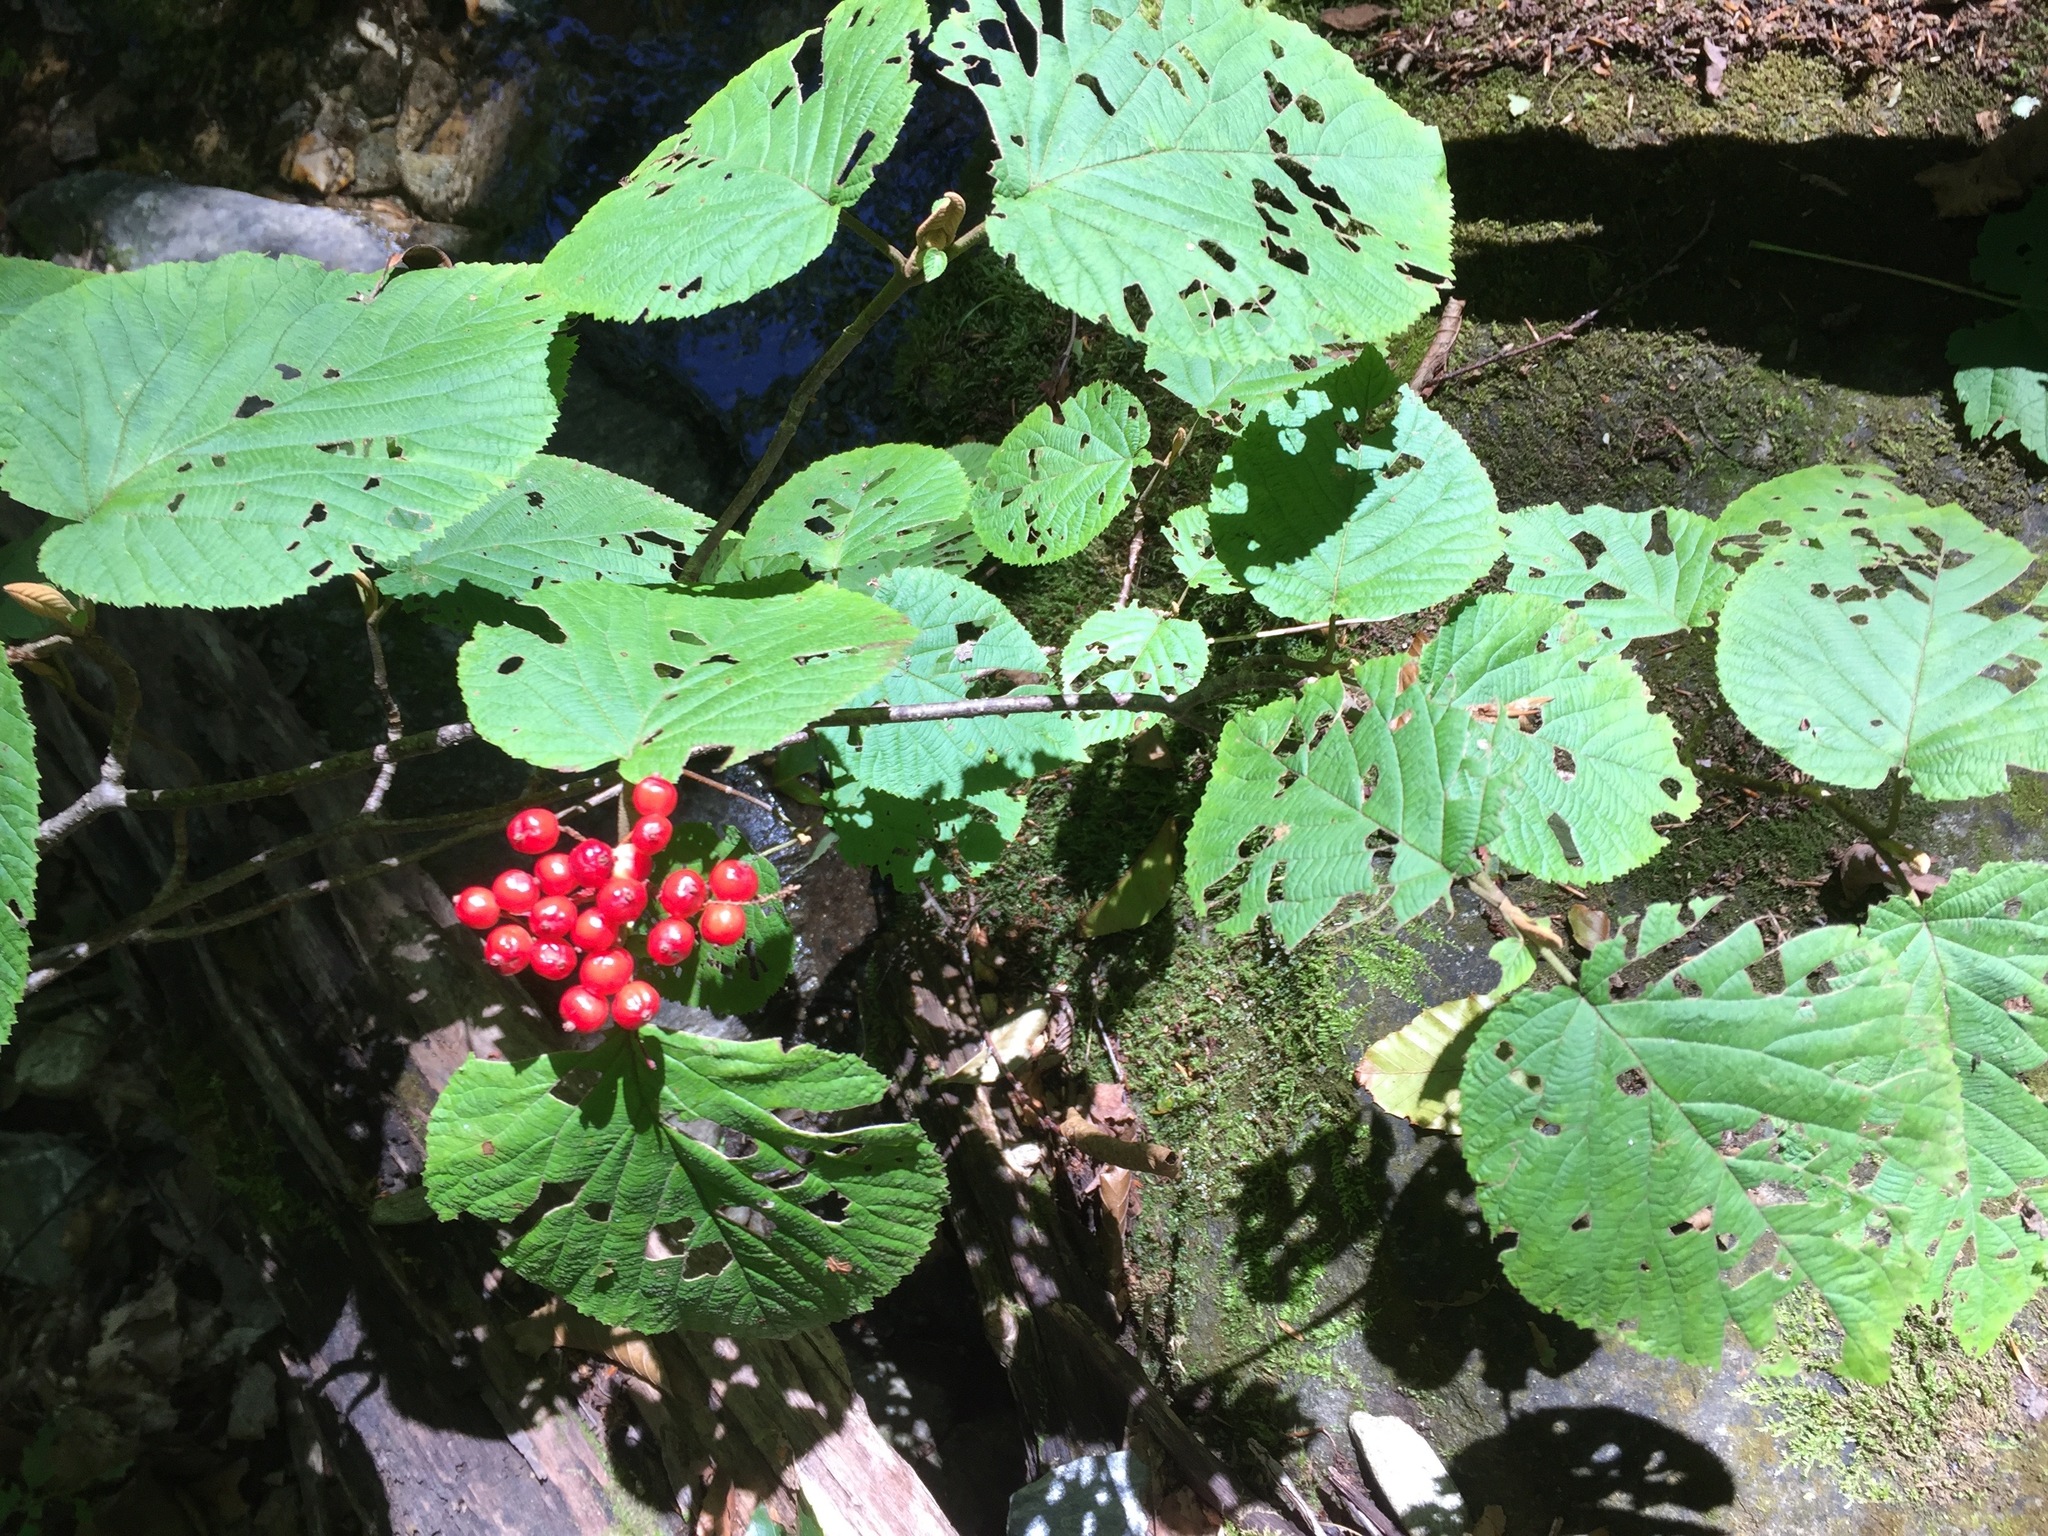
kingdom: Plantae
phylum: Tracheophyta
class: Magnoliopsida
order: Dipsacales
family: Viburnaceae
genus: Viburnum
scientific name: Viburnum lantanoides
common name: Hobblebush
